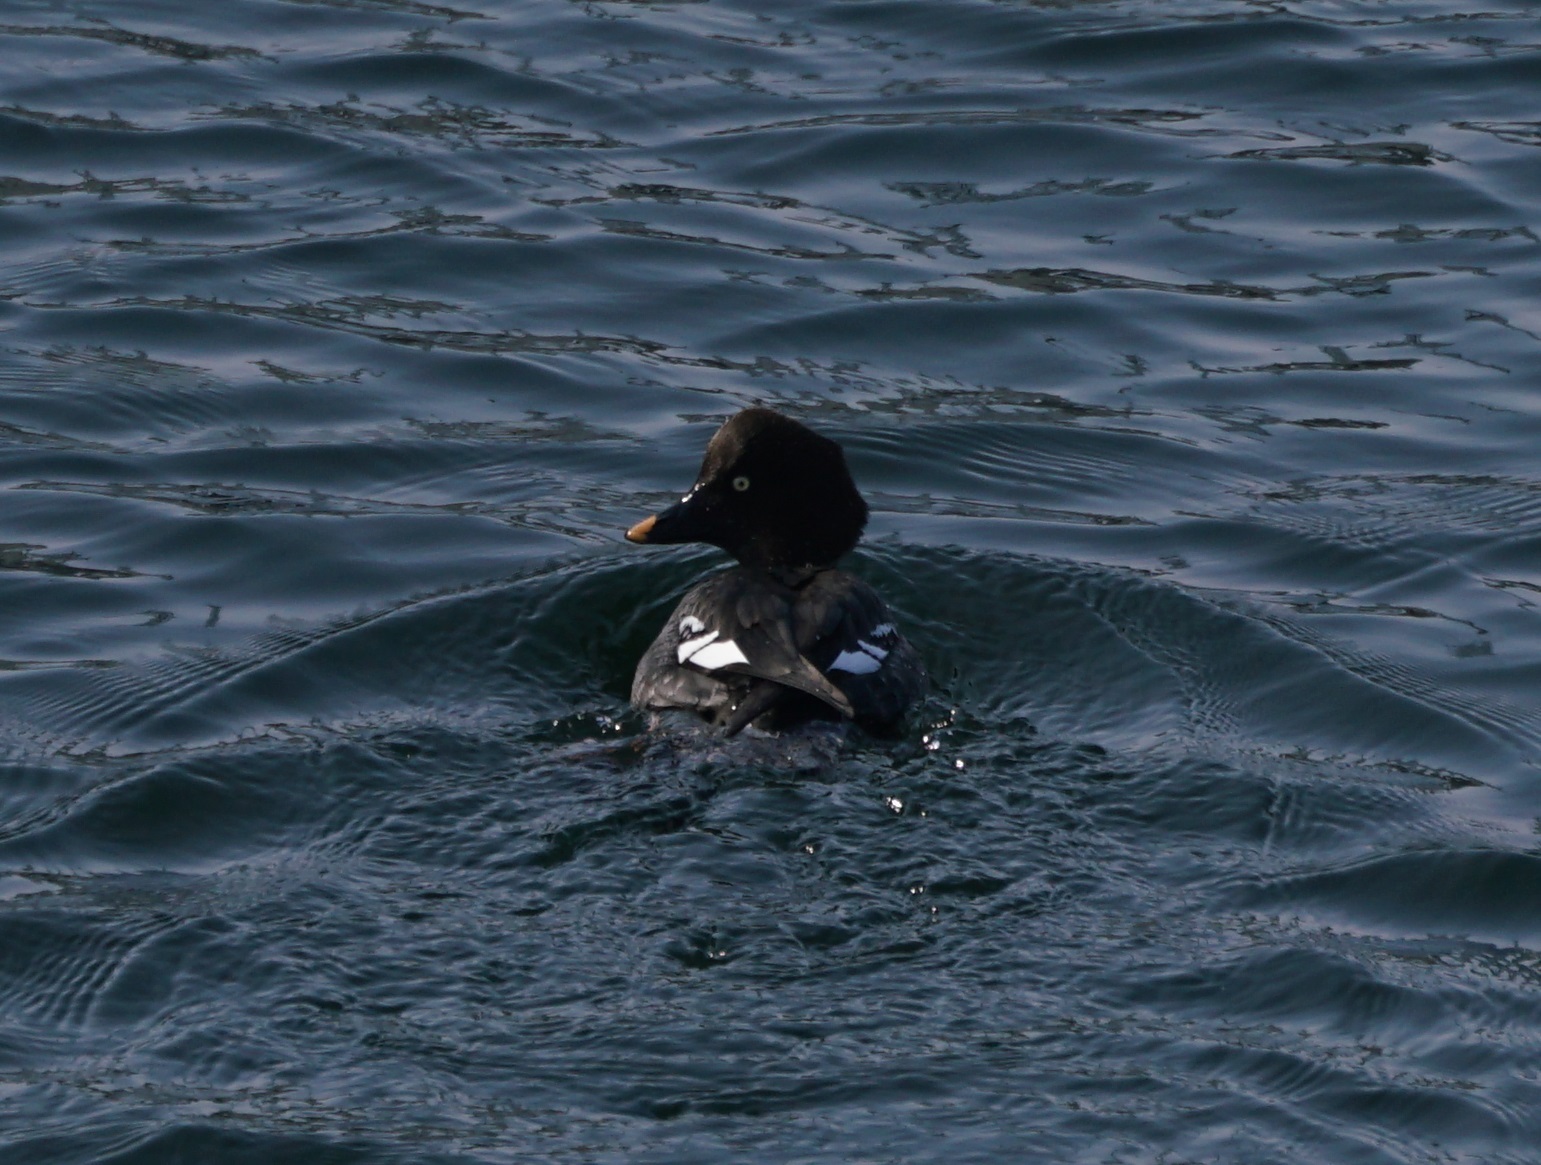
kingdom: Animalia
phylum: Chordata
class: Aves
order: Anseriformes
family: Anatidae
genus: Bucephala
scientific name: Bucephala clangula
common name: Common goldeneye
